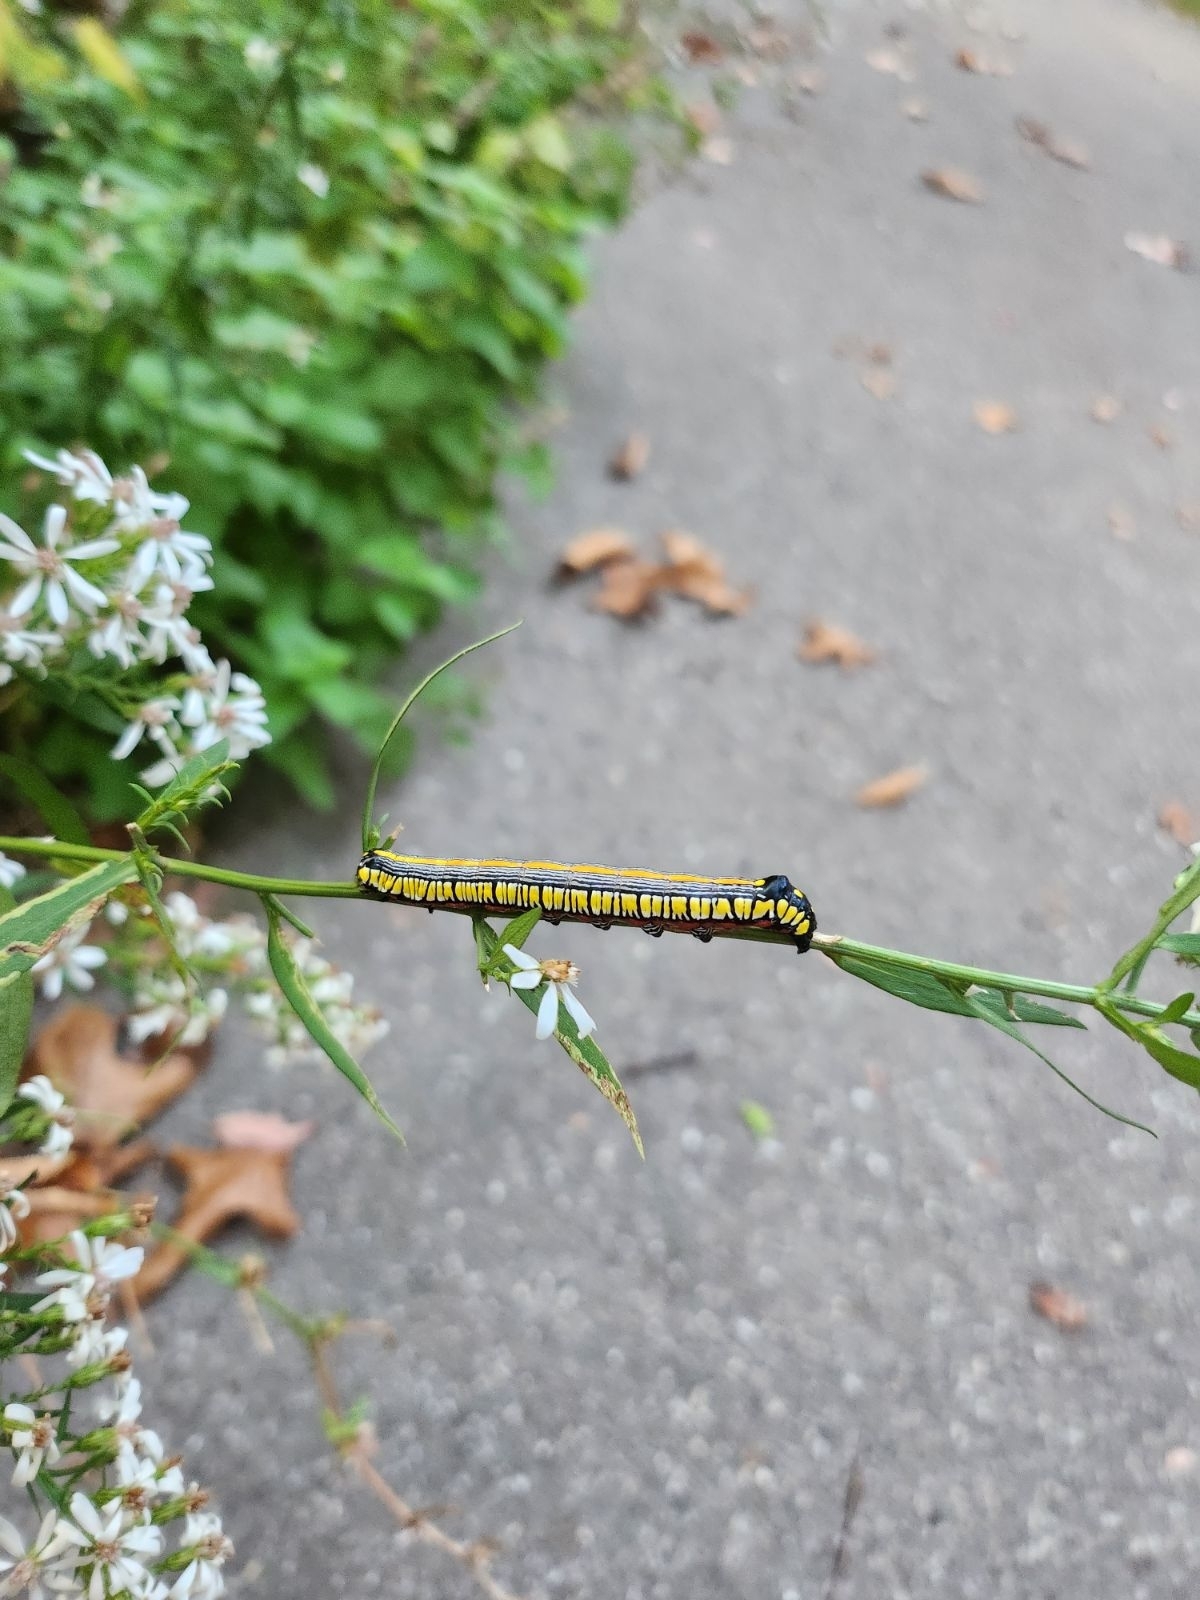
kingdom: Animalia
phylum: Arthropoda
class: Insecta
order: Lepidoptera
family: Noctuidae
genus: Cucullia
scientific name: Cucullia convexipennis
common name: Brown-hooded owlet
